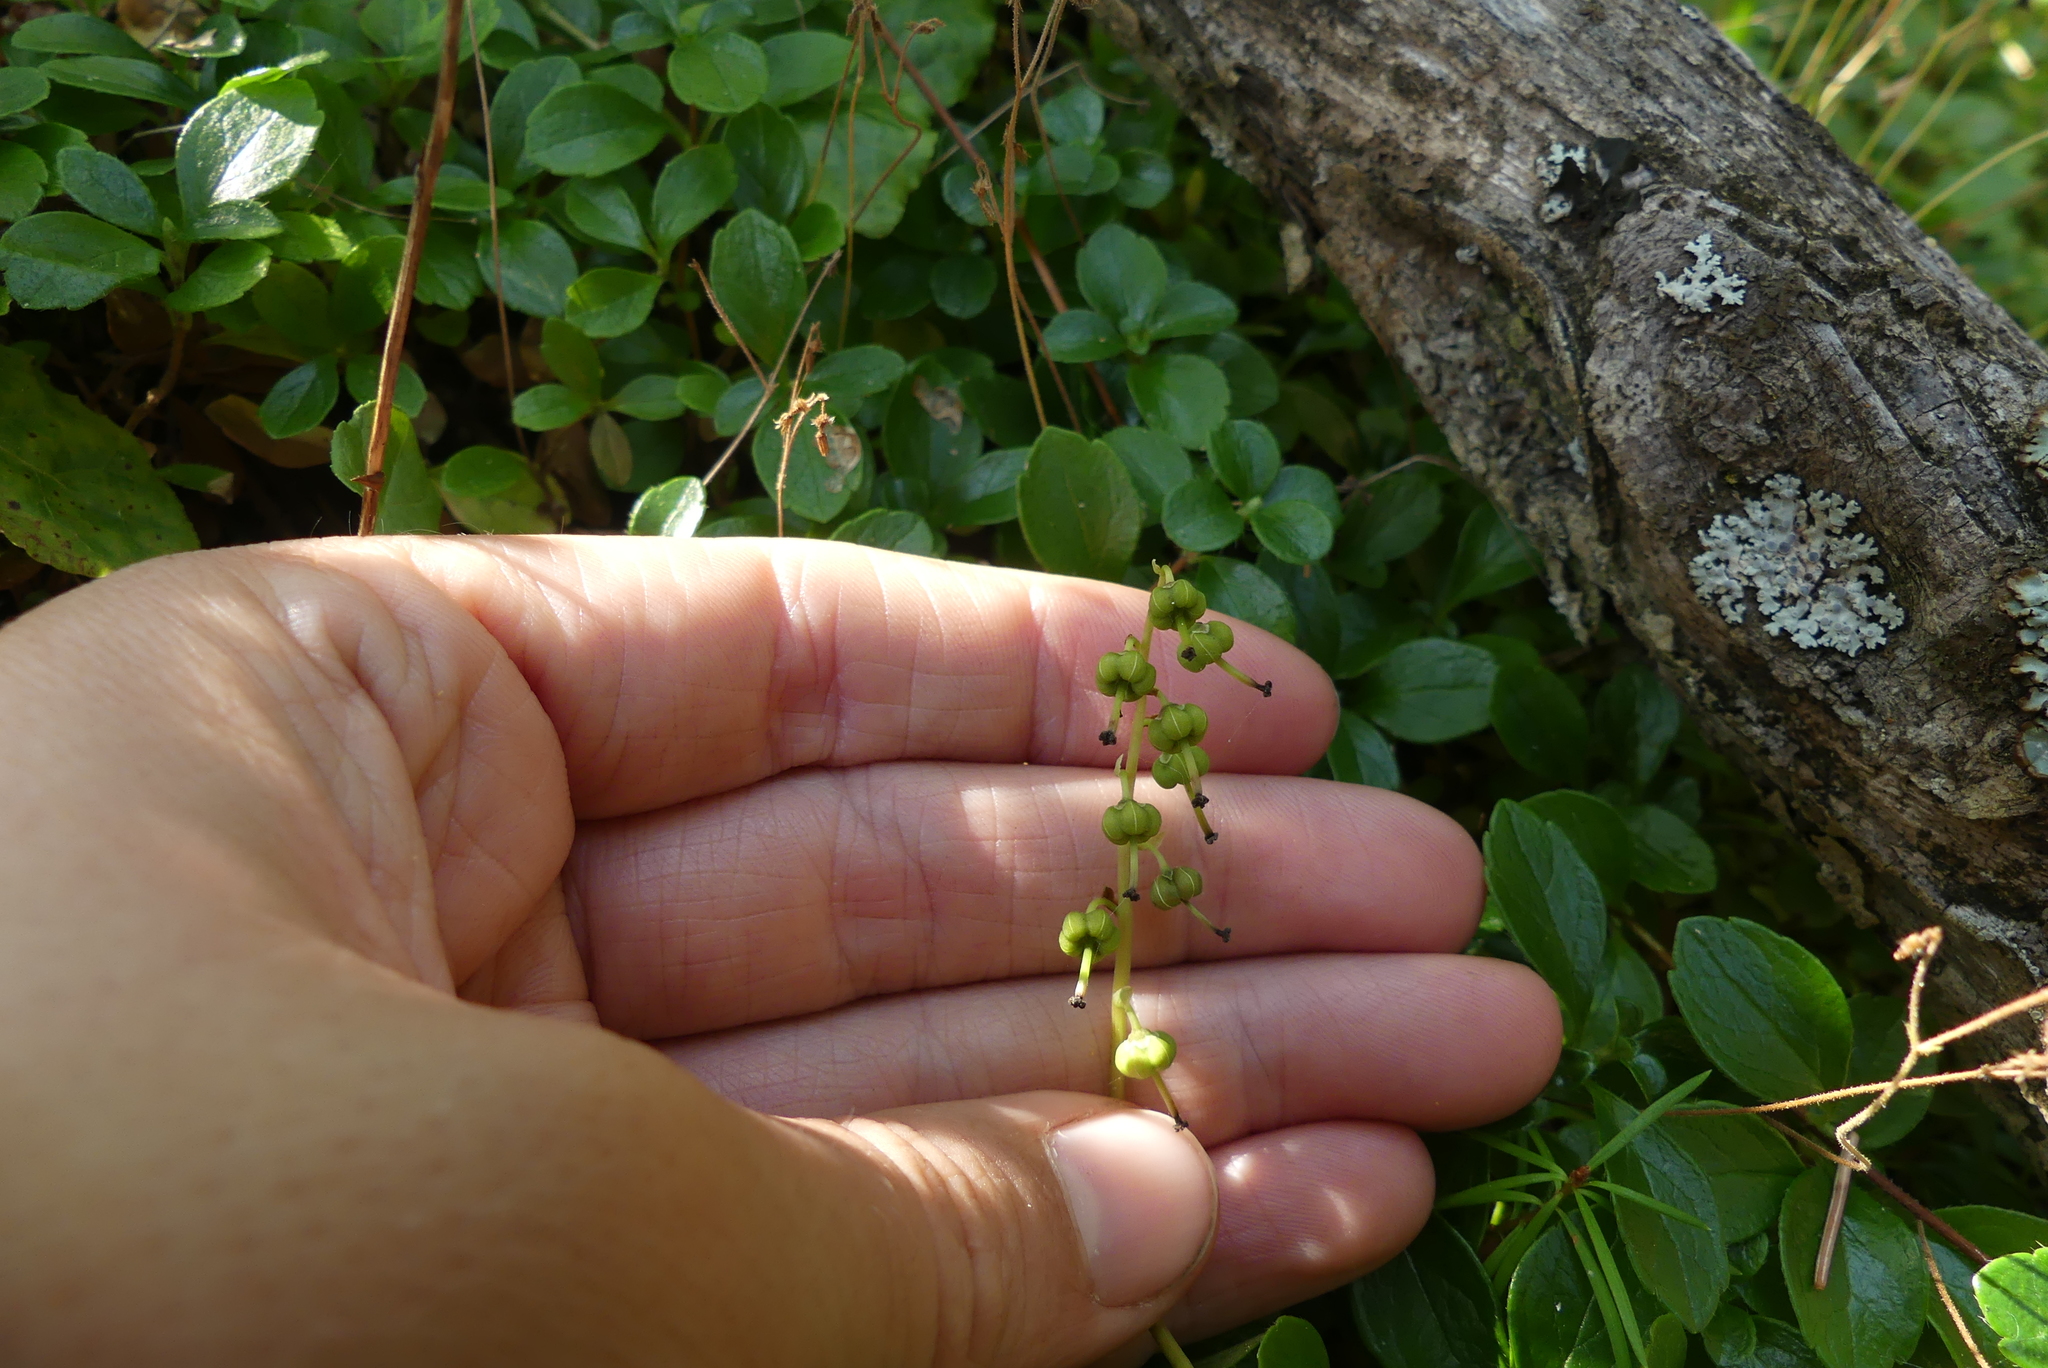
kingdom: Plantae
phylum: Tracheophyta
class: Magnoliopsida
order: Ericales
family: Ericaceae
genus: Orthilia
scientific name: Orthilia secunda
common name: One-sided orthilia
